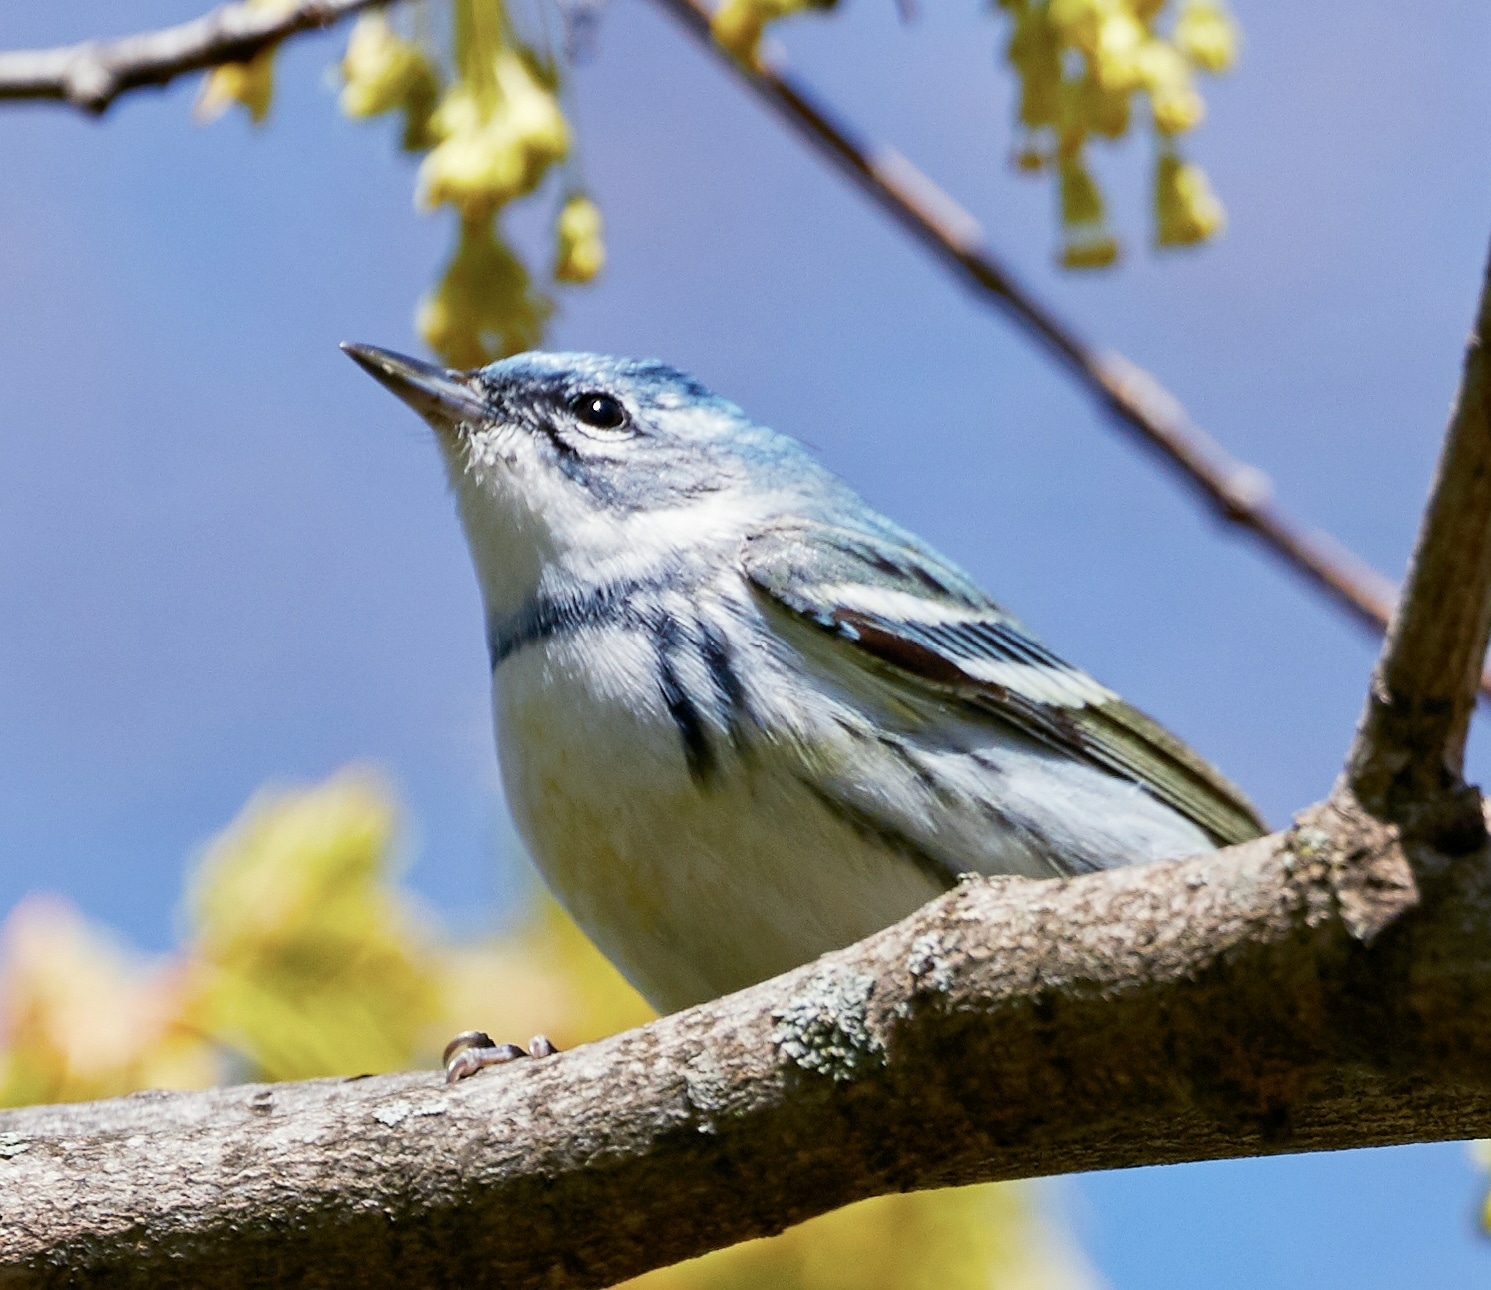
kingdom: Animalia
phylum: Chordata
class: Aves
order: Passeriformes
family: Parulidae
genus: Setophaga
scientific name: Setophaga cerulea
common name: Cerulean warbler
